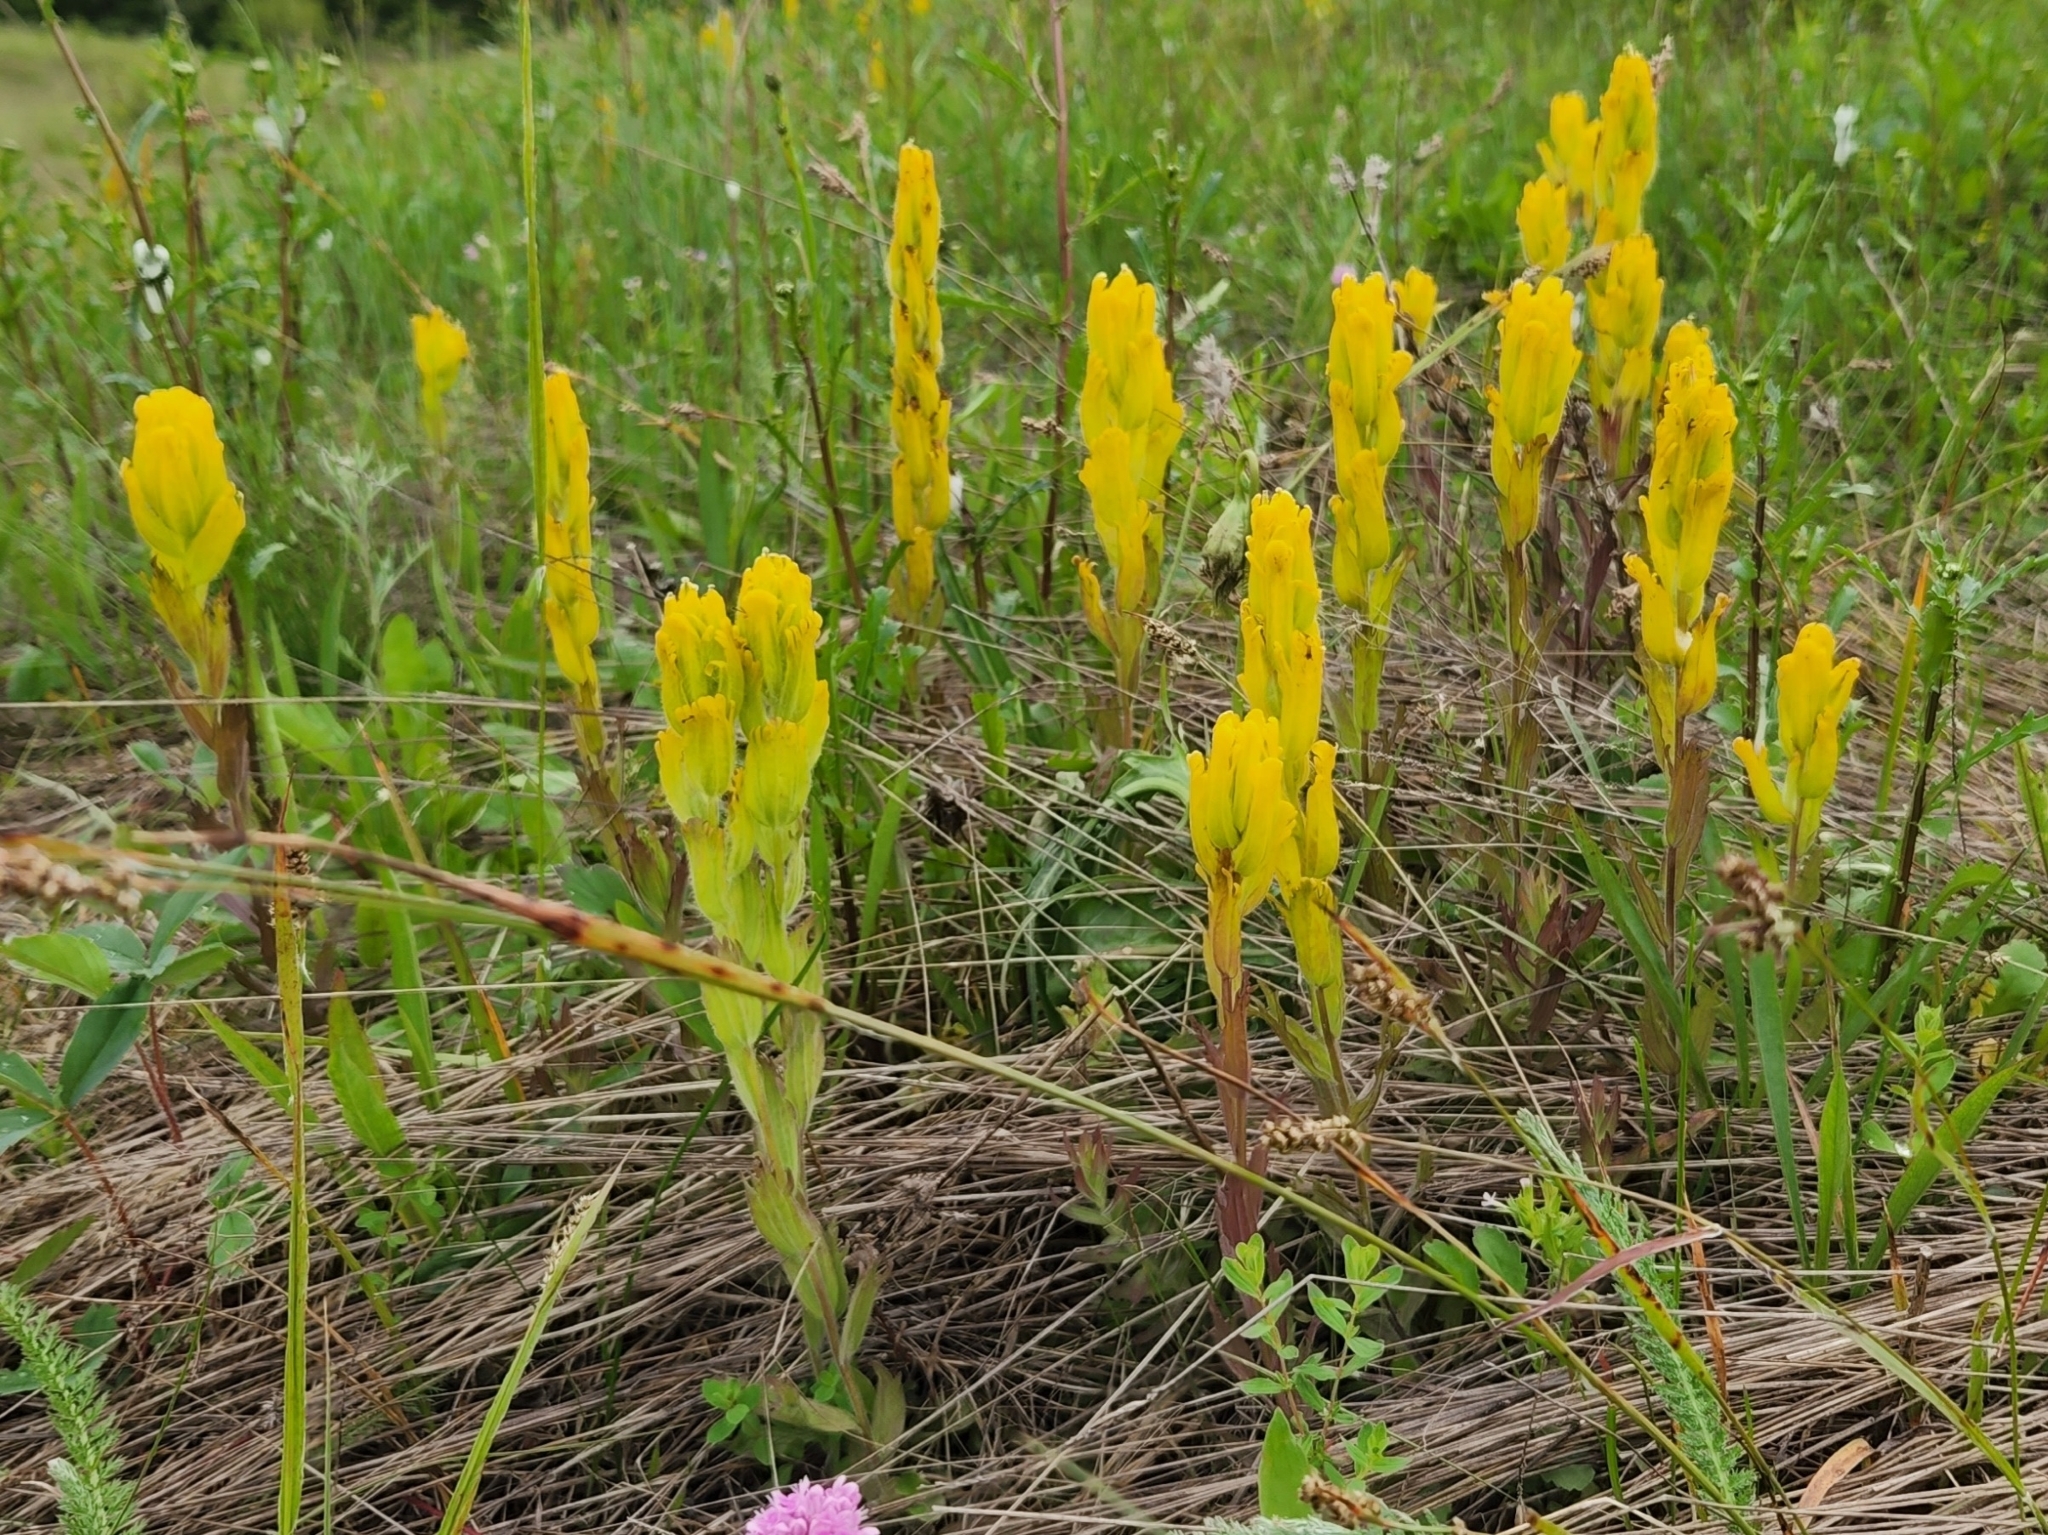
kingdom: Plantae
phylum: Tracheophyta
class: Magnoliopsida
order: Lamiales
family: Orobanchaceae
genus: Castilleja
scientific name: Castilleja levisecta
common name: Golden paintbrush
